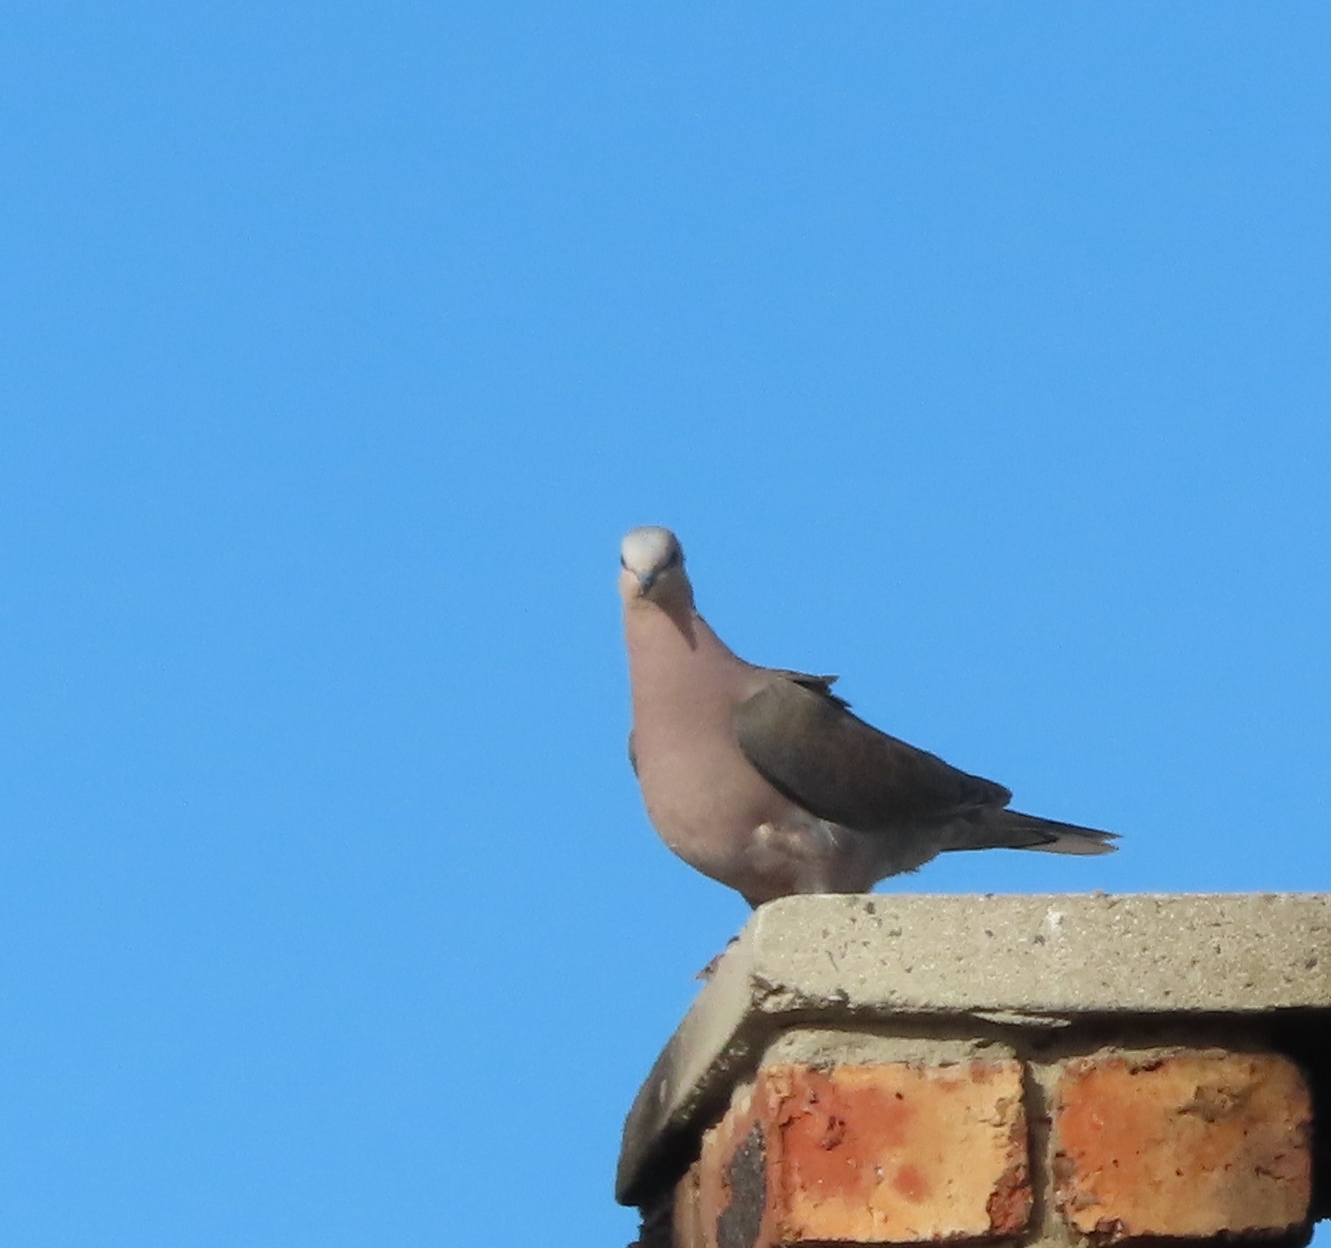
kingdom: Animalia
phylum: Chordata
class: Aves
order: Columbiformes
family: Columbidae
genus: Streptopelia
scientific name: Streptopelia semitorquata
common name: Red-eyed dove
